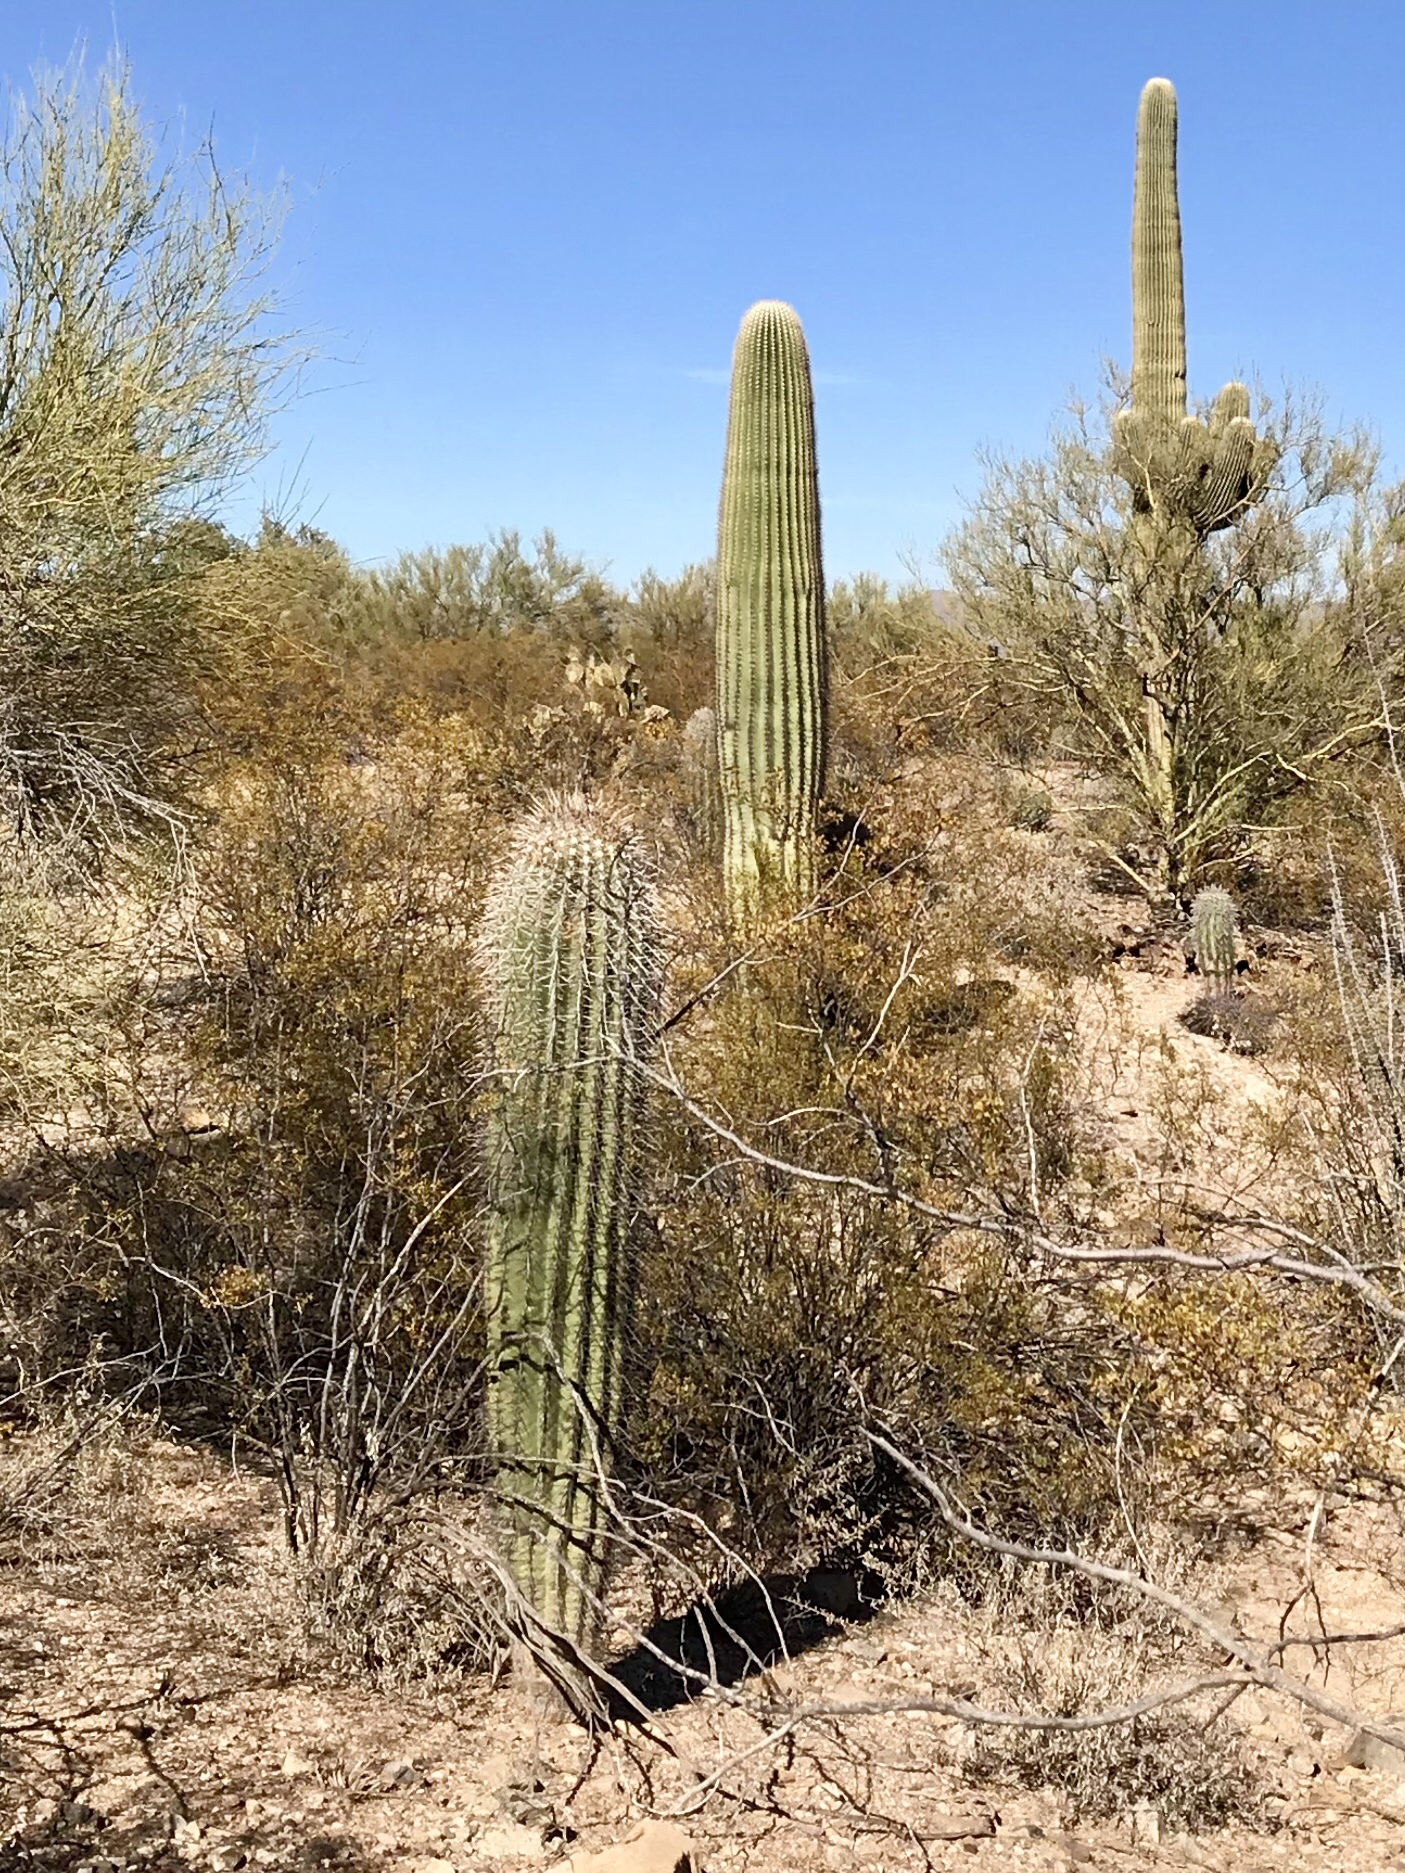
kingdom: Plantae
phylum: Tracheophyta
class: Magnoliopsida
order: Caryophyllales
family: Cactaceae
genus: Carnegiea
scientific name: Carnegiea gigantea
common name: Saguaro
